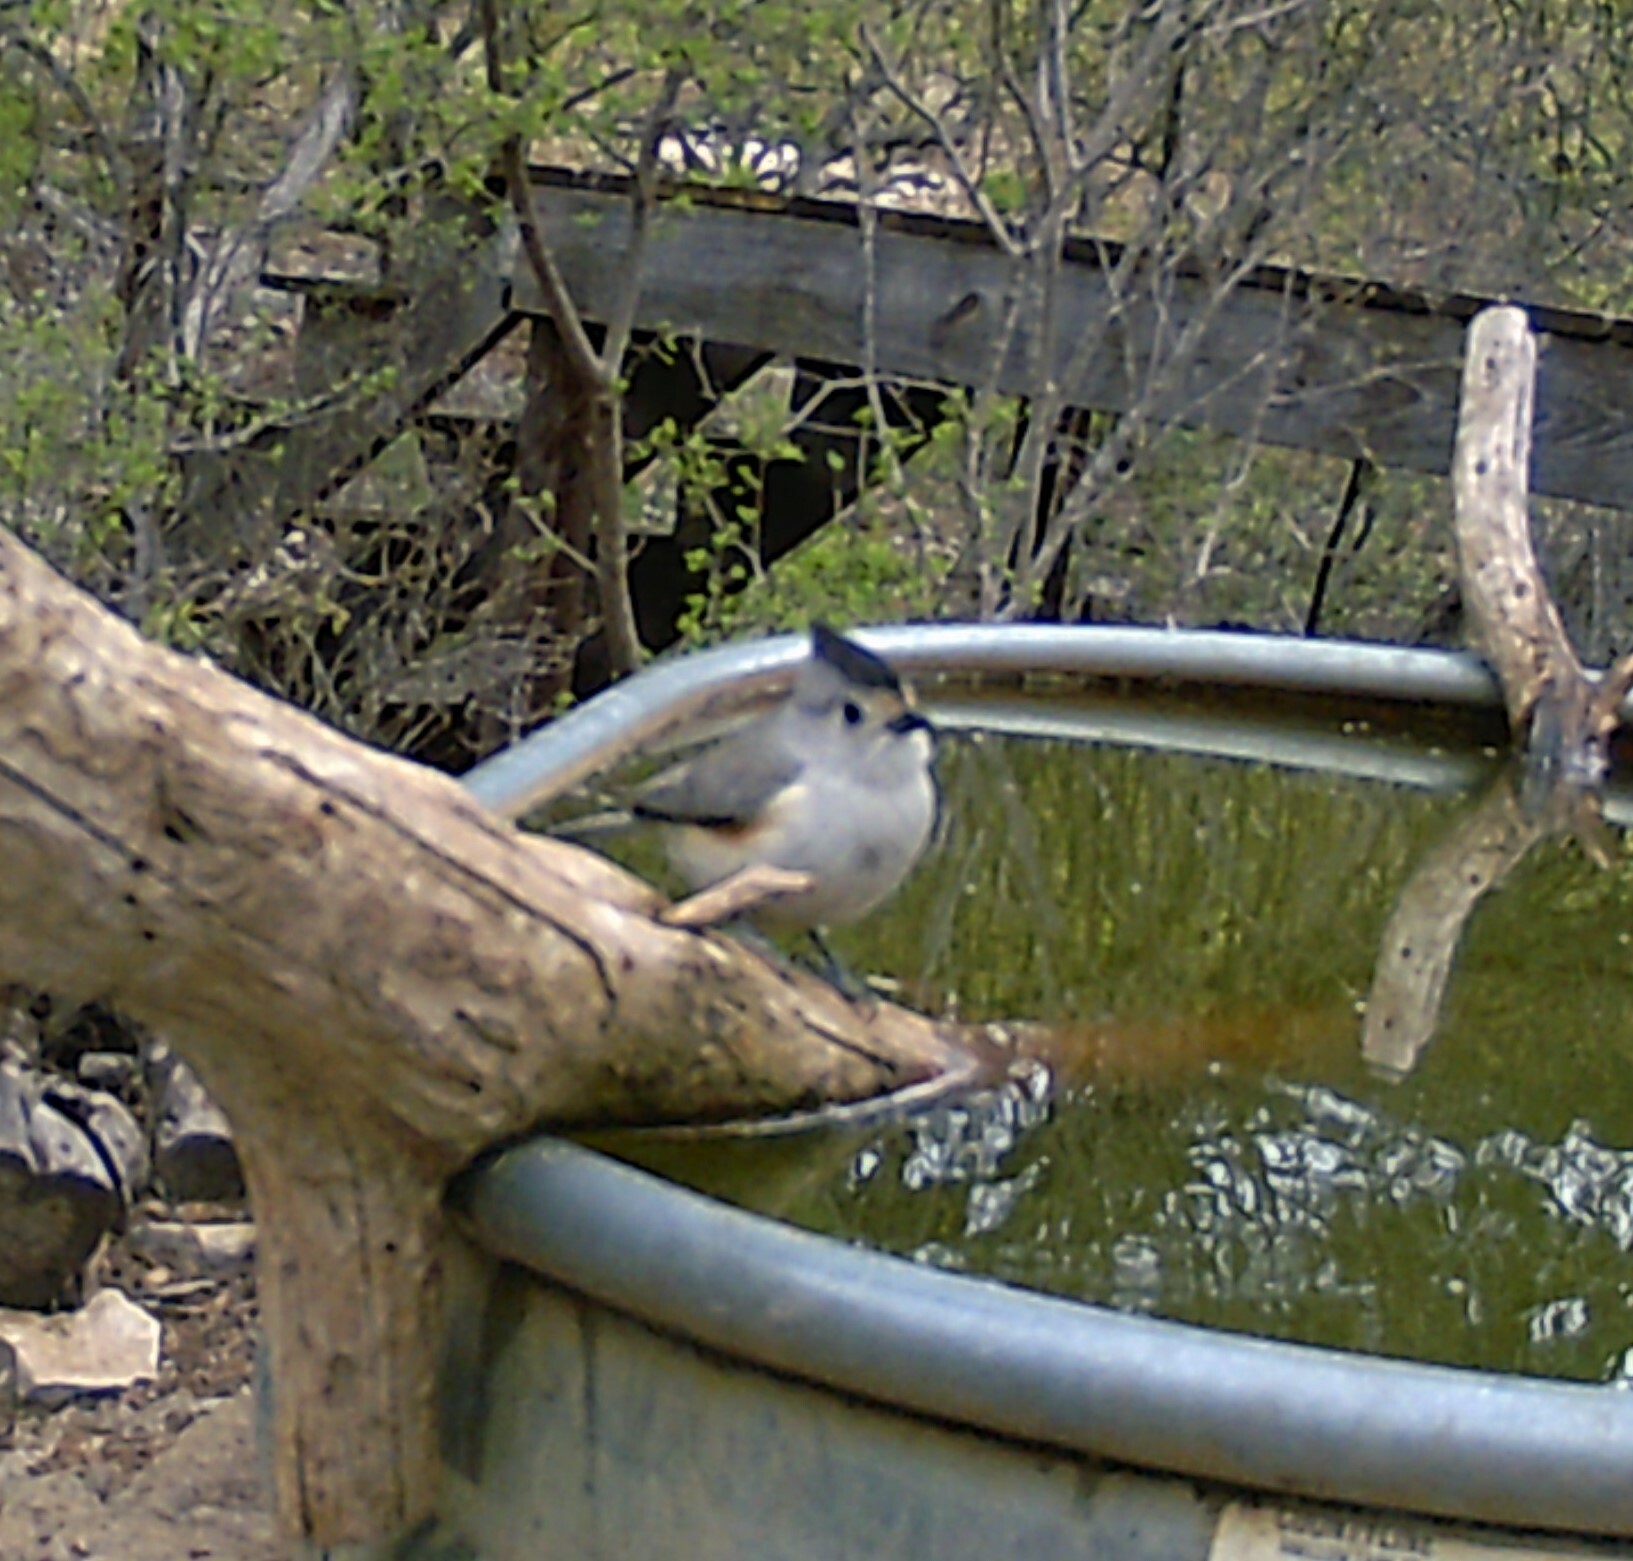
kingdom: Animalia
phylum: Chordata
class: Aves
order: Passeriformes
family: Paridae
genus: Baeolophus
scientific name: Baeolophus atricristatus
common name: Black-crested titmouse
